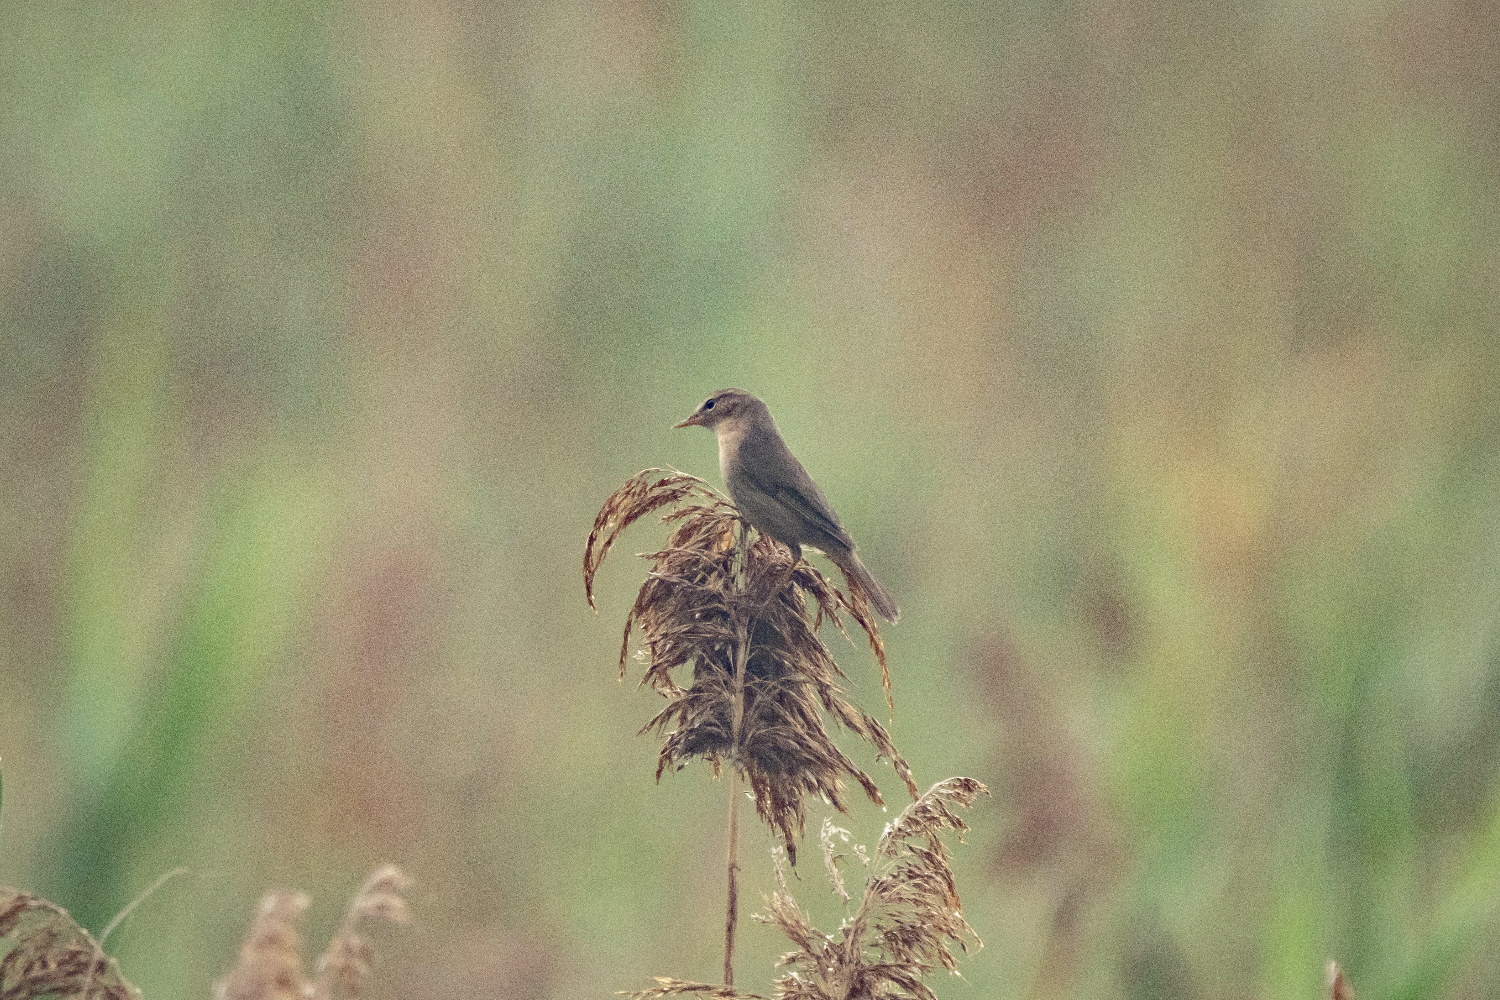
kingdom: Animalia
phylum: Chordata
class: Aves
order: Passeriformes
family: Phylloscopidae
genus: Phylloscopus
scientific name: Phylloscopus fuscatus
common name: Dusky warbler
